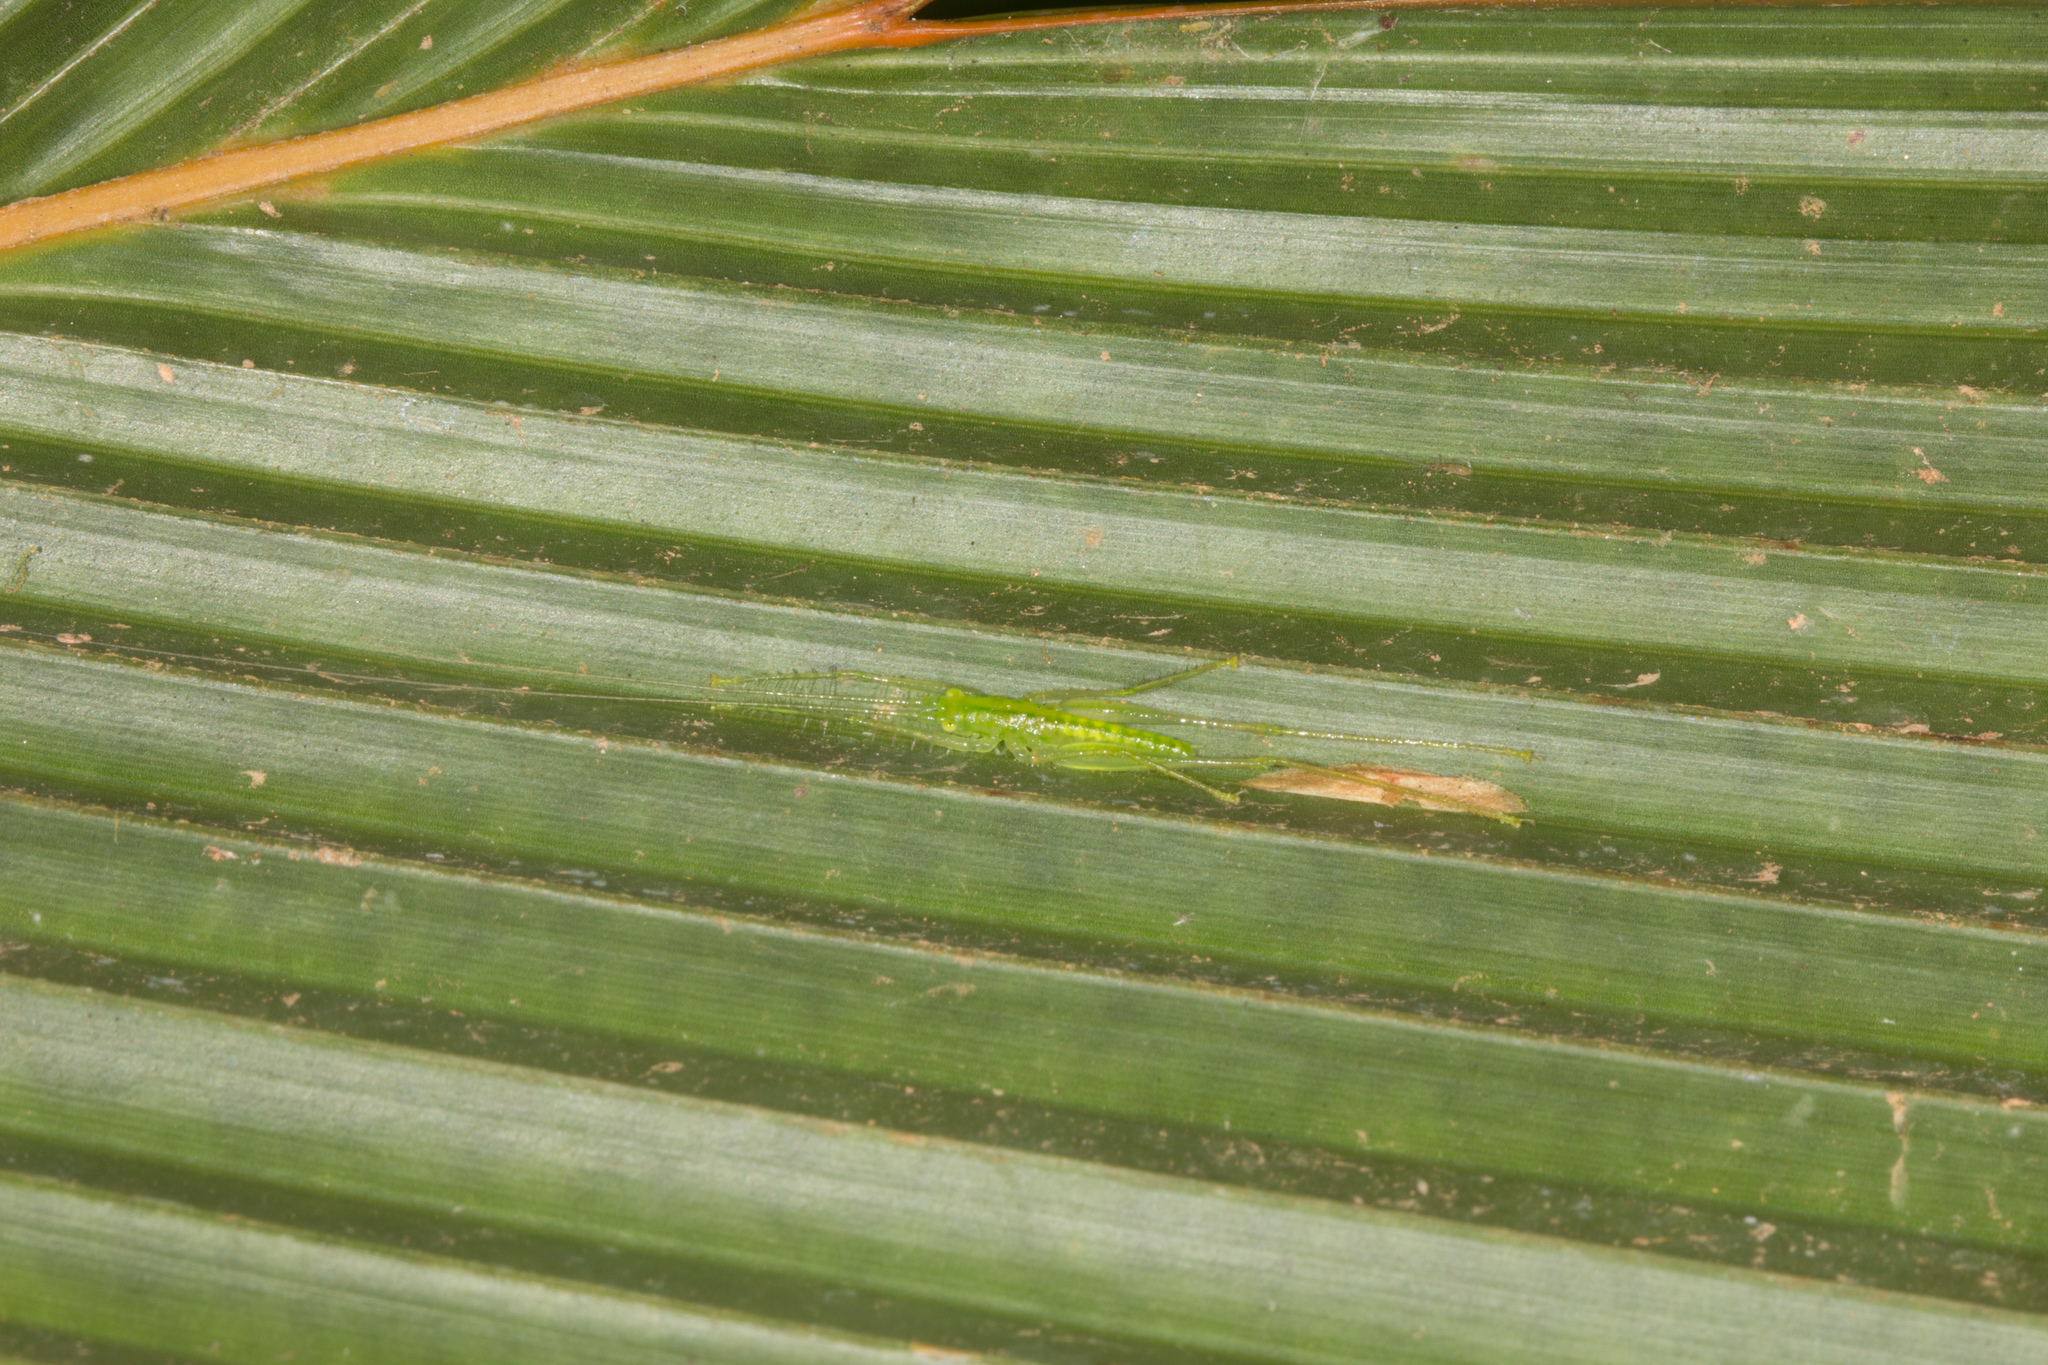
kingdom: Animalia
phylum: Arthropoda
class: Insecta
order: Orthoptera
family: Tettigoniidae
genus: Seselphisis
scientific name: Seselphisis visenda
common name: Seychelles predatory bush-cricket
